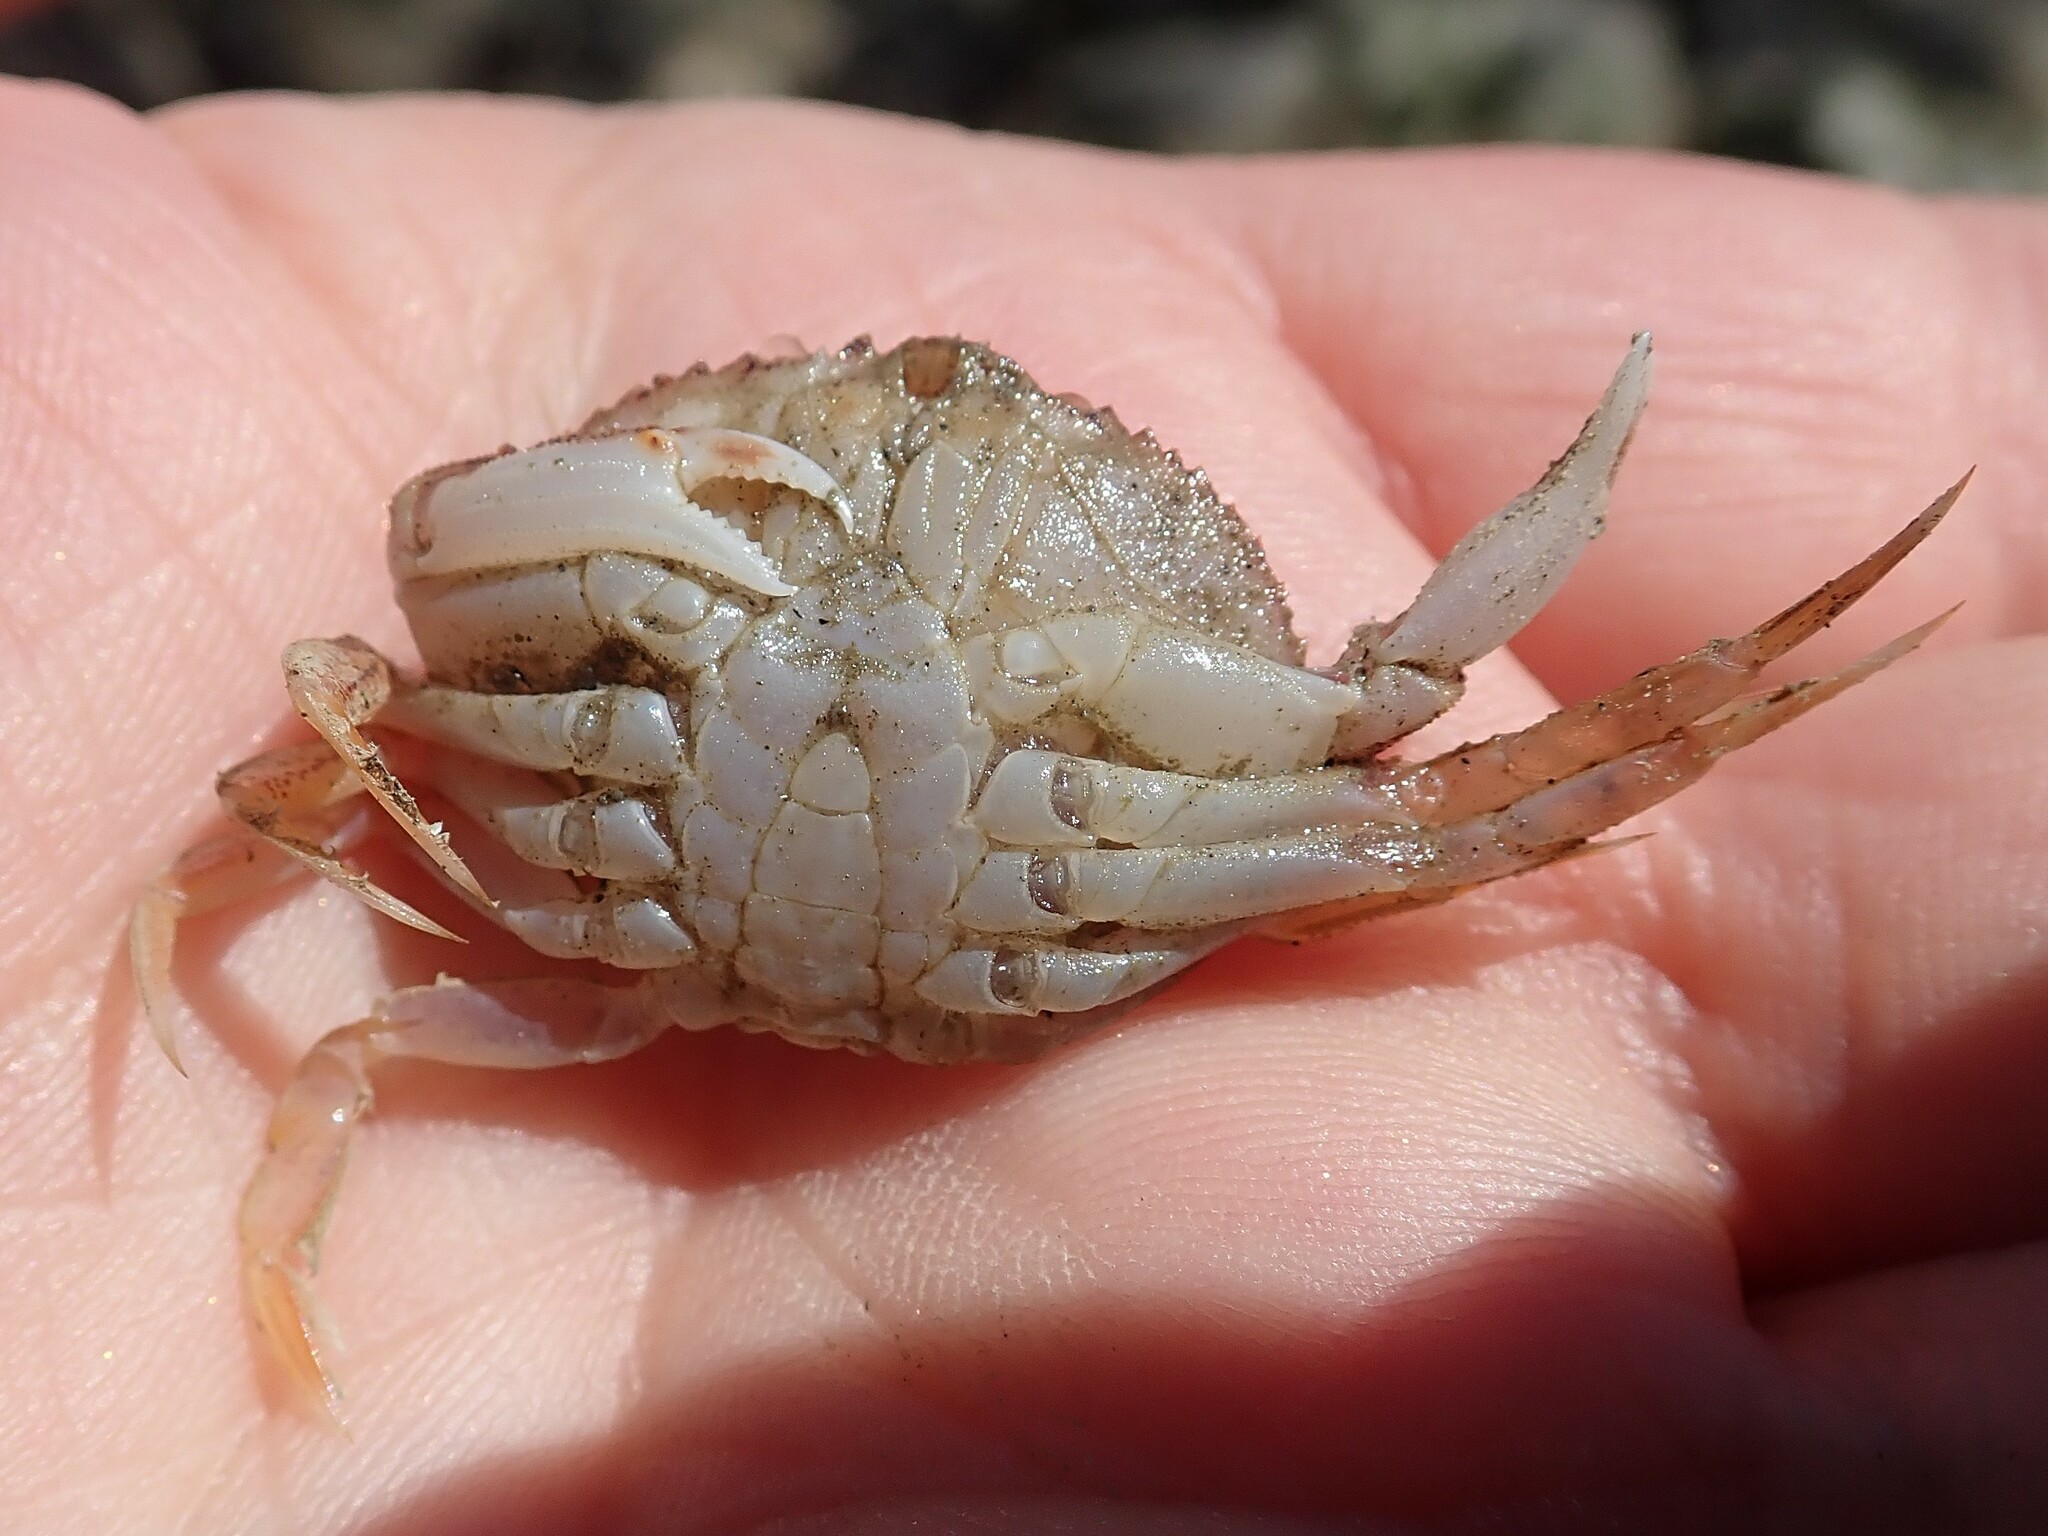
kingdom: Animalia
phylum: Arthropoda
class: Malacostraca
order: Decapoda
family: Cancridae
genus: Metacarcinus
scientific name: Metacarcinus magister
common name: Californian crab
